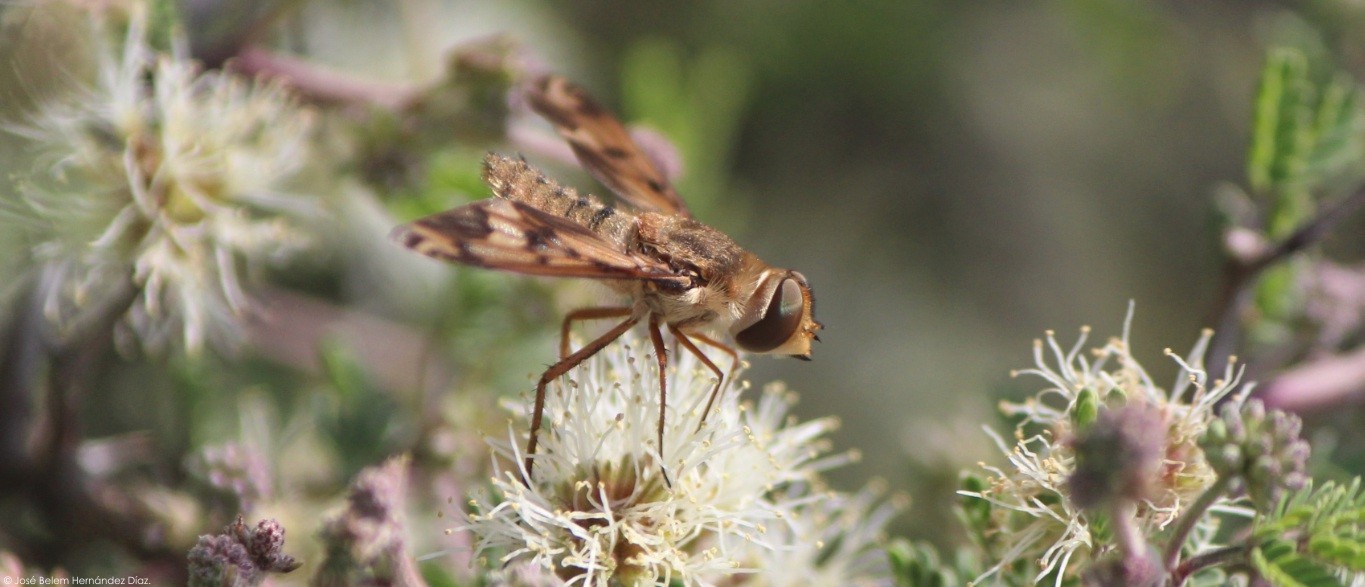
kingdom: Animalia
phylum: Arthropoda
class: Insecta
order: Diptera
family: Bombyliidae
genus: Poecilanthrax
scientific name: Poecilanthrax arethusa
